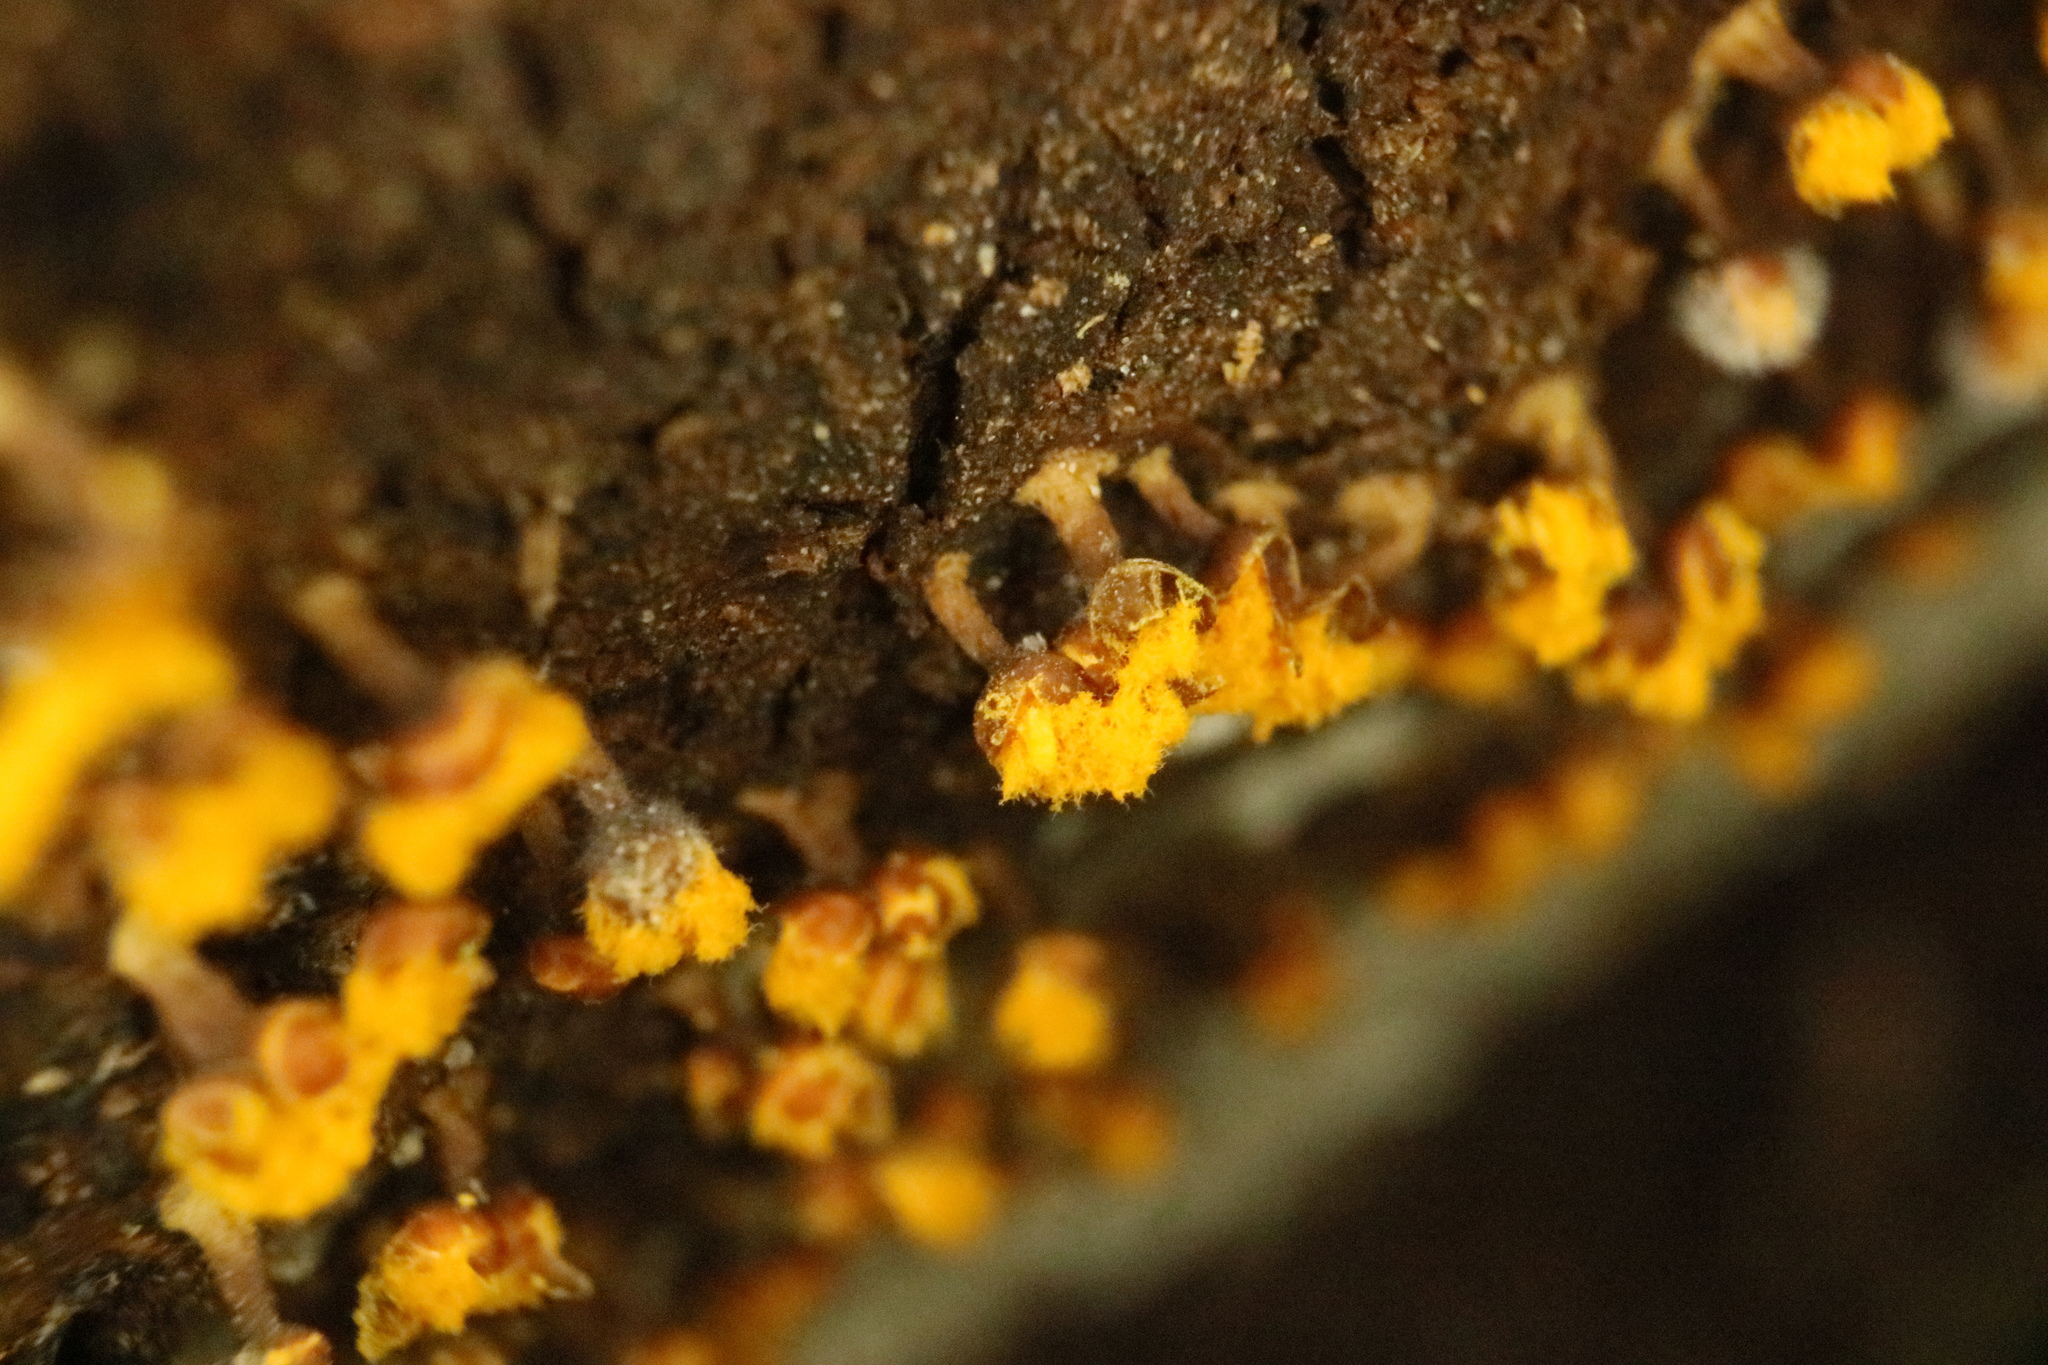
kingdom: Protozoa
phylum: Mycetozoa
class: Myxomycetes
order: Trichiales
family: Trichiaceae
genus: Trichia
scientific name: Trichia erecta
